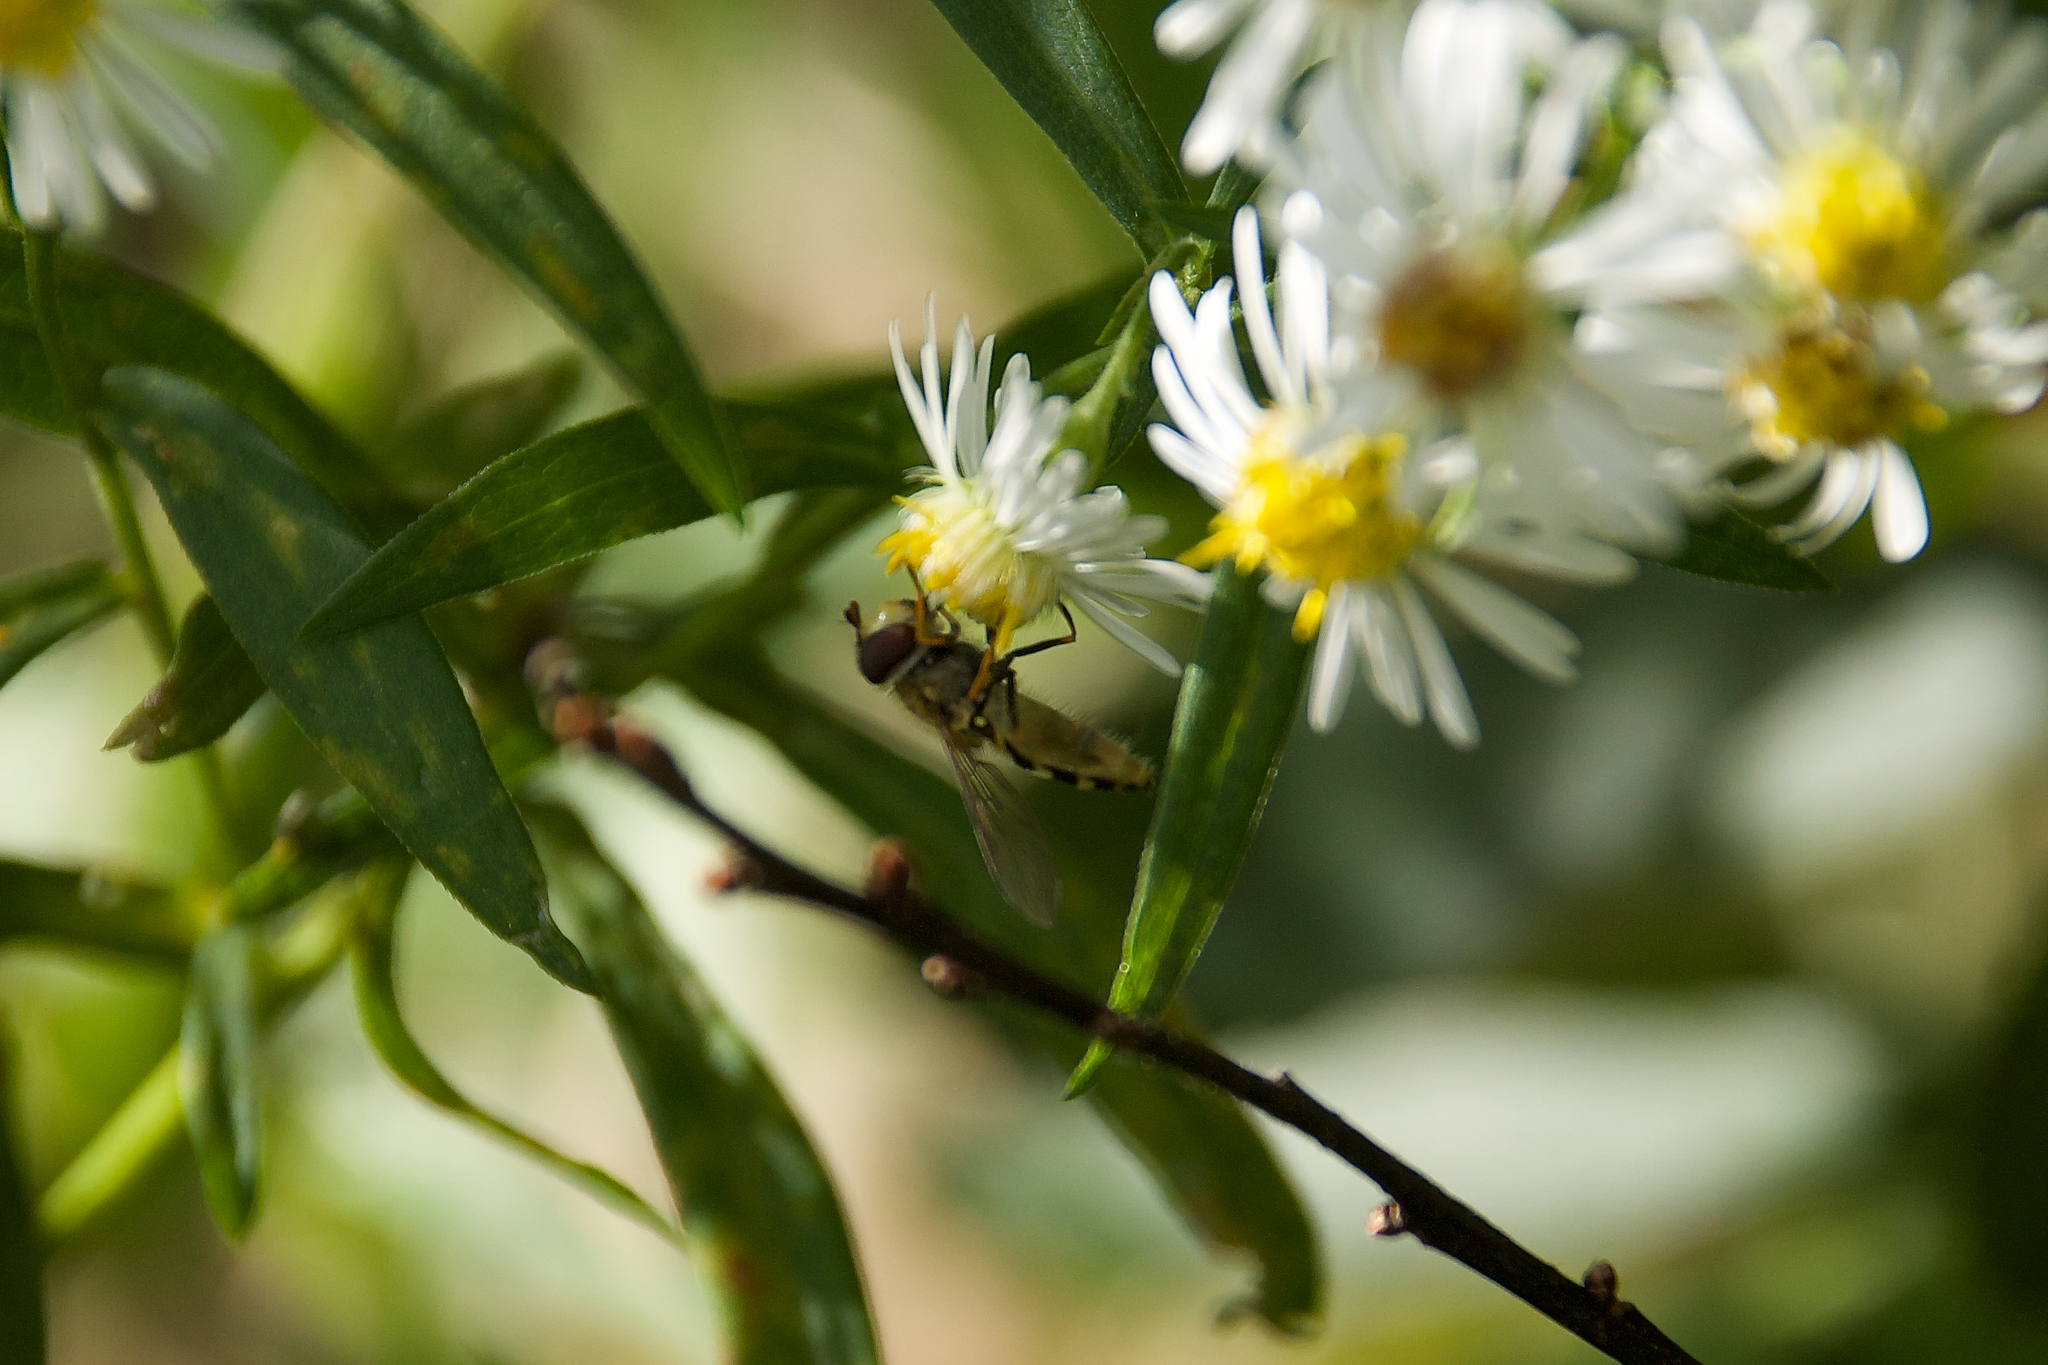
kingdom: Animalia
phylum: Arthropoda
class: Insecta
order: Diptera
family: Syrphidae
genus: Syrphus
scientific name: Syrphus
